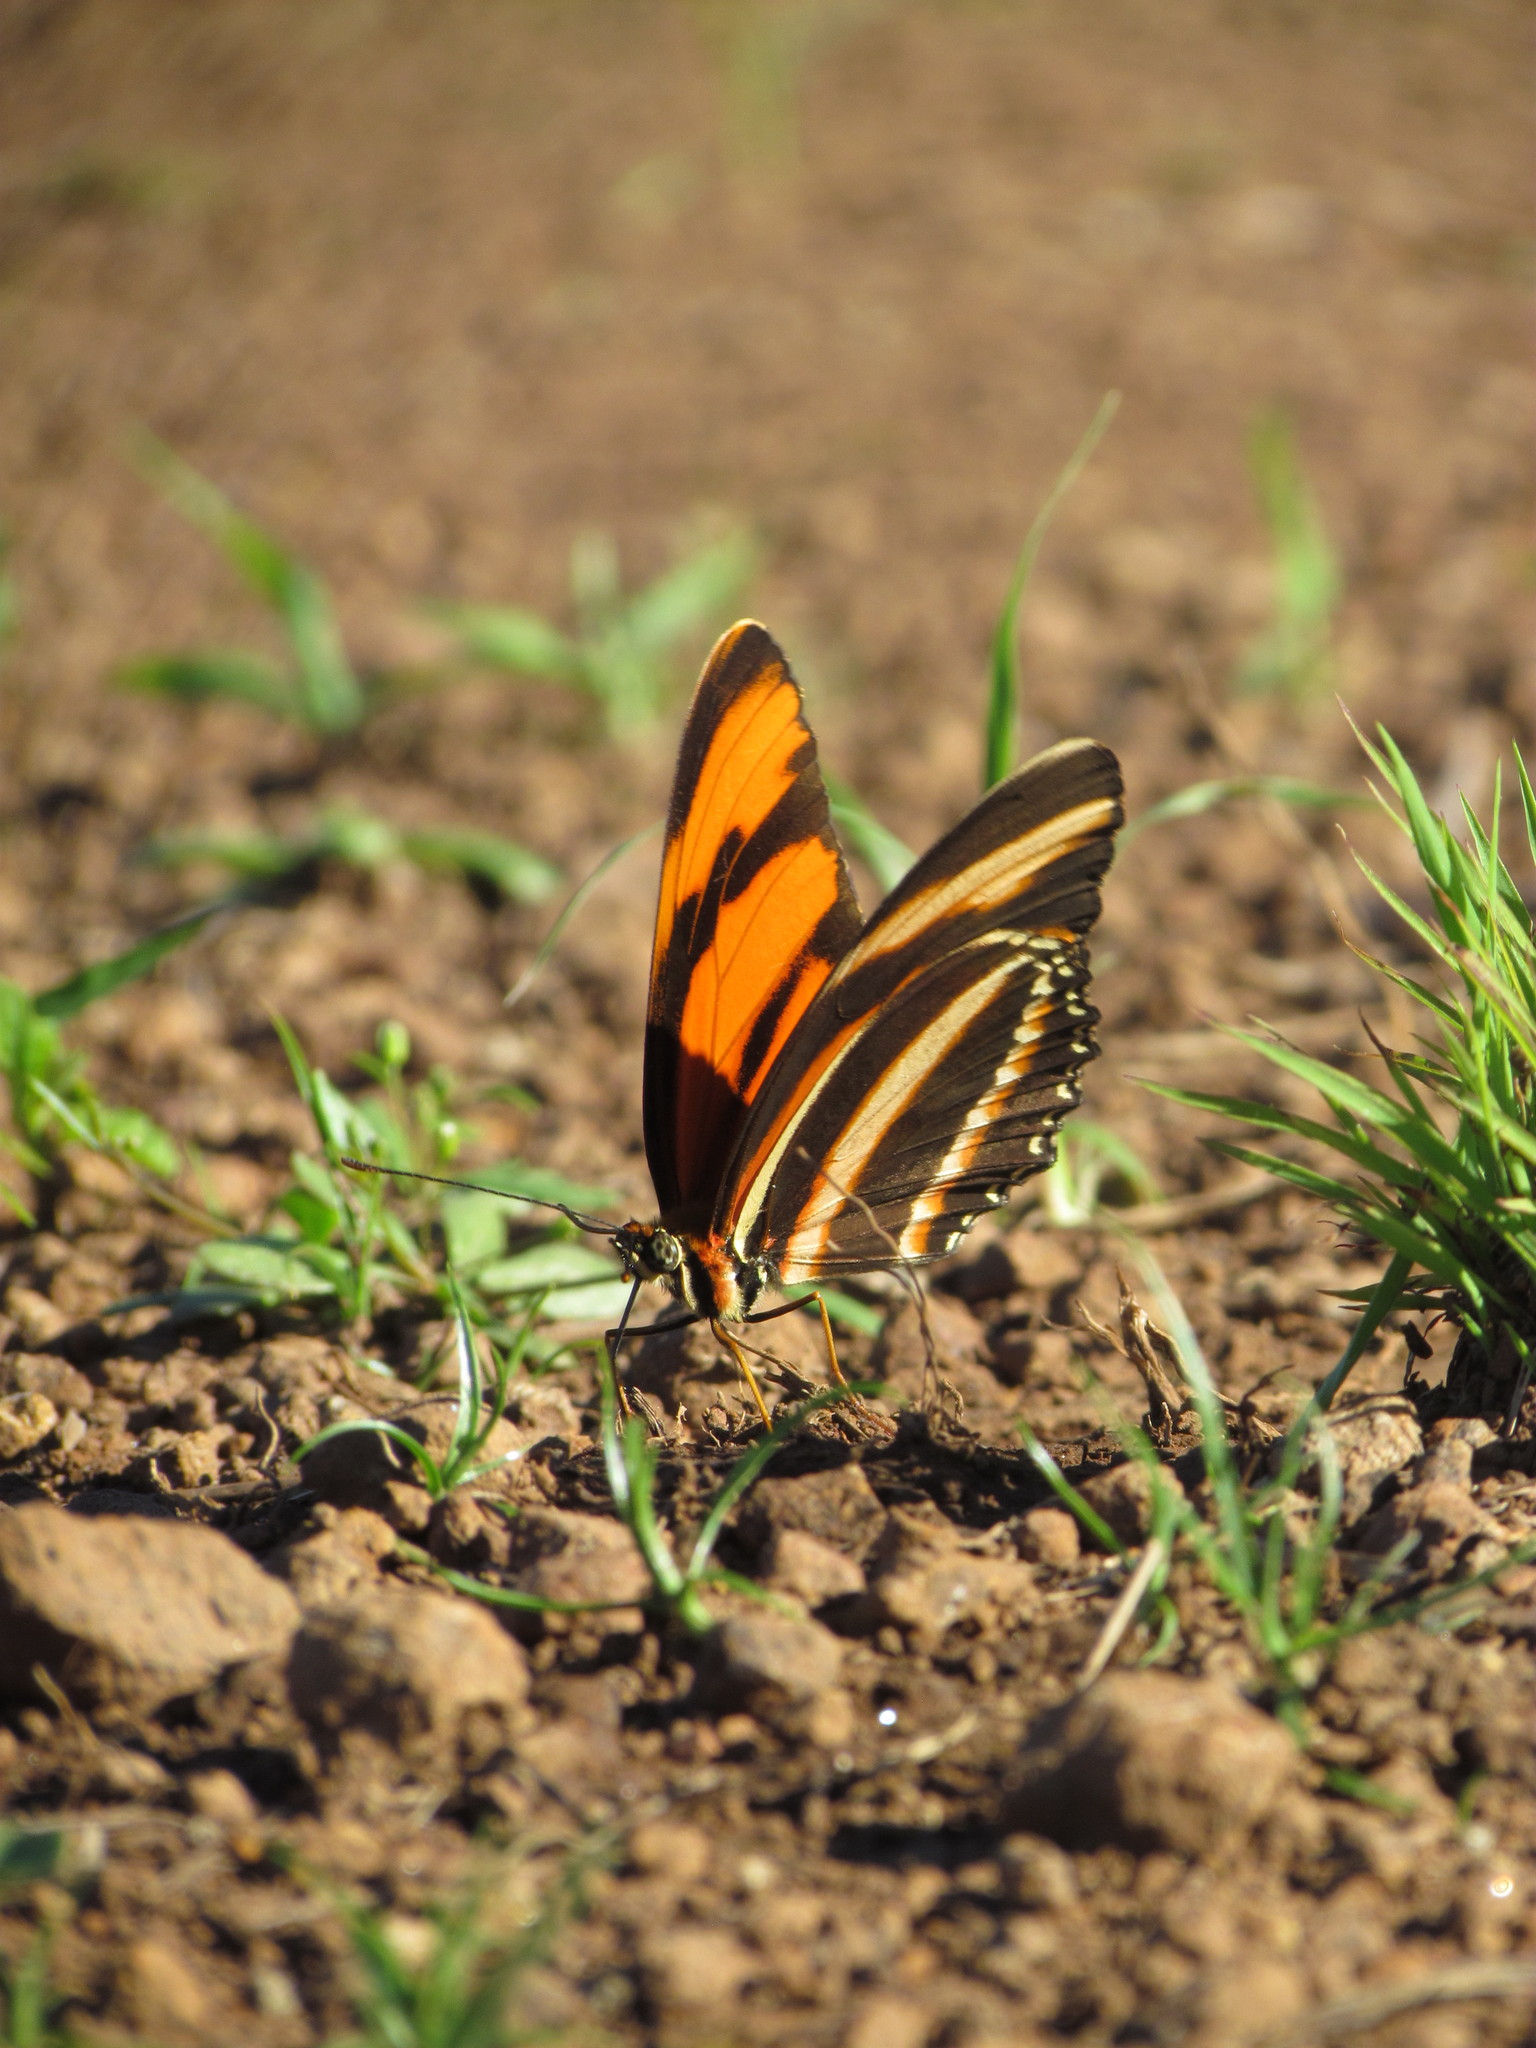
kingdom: Animalia
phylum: Arthropoda
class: Insecta
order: Lepidoptera
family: Nymphalidae
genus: Dryadula
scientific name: Dryadula phaetusa
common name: Banded orange heliconian
